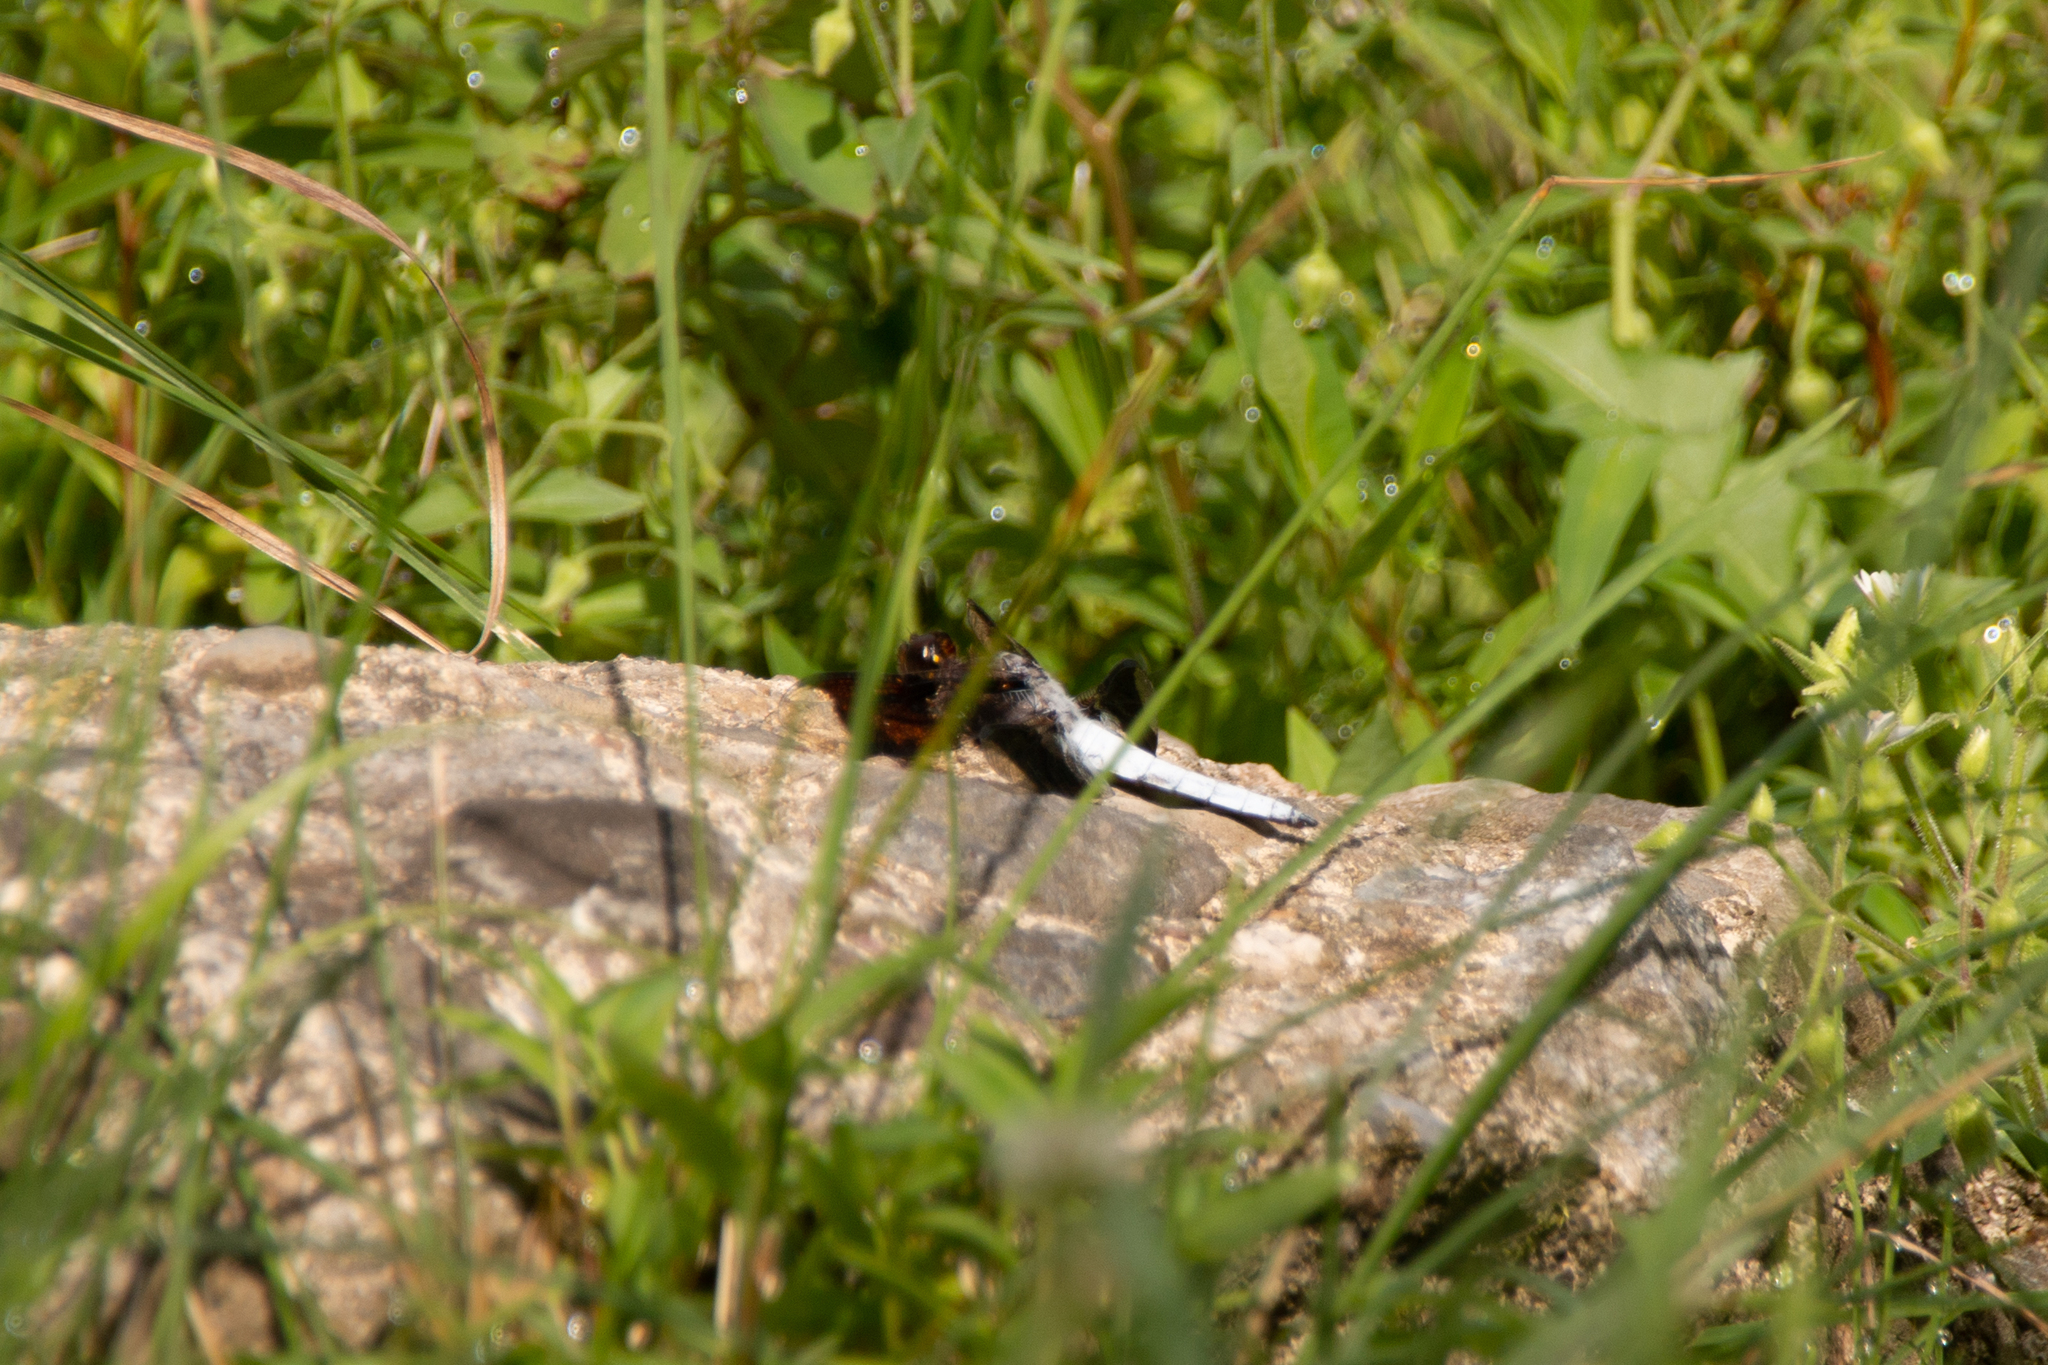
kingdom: Animalia
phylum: Arthropoda
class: Insecta
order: Odonata
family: Libellulidae
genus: Plathemis
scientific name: Plathemis lydia
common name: Common whitetail
